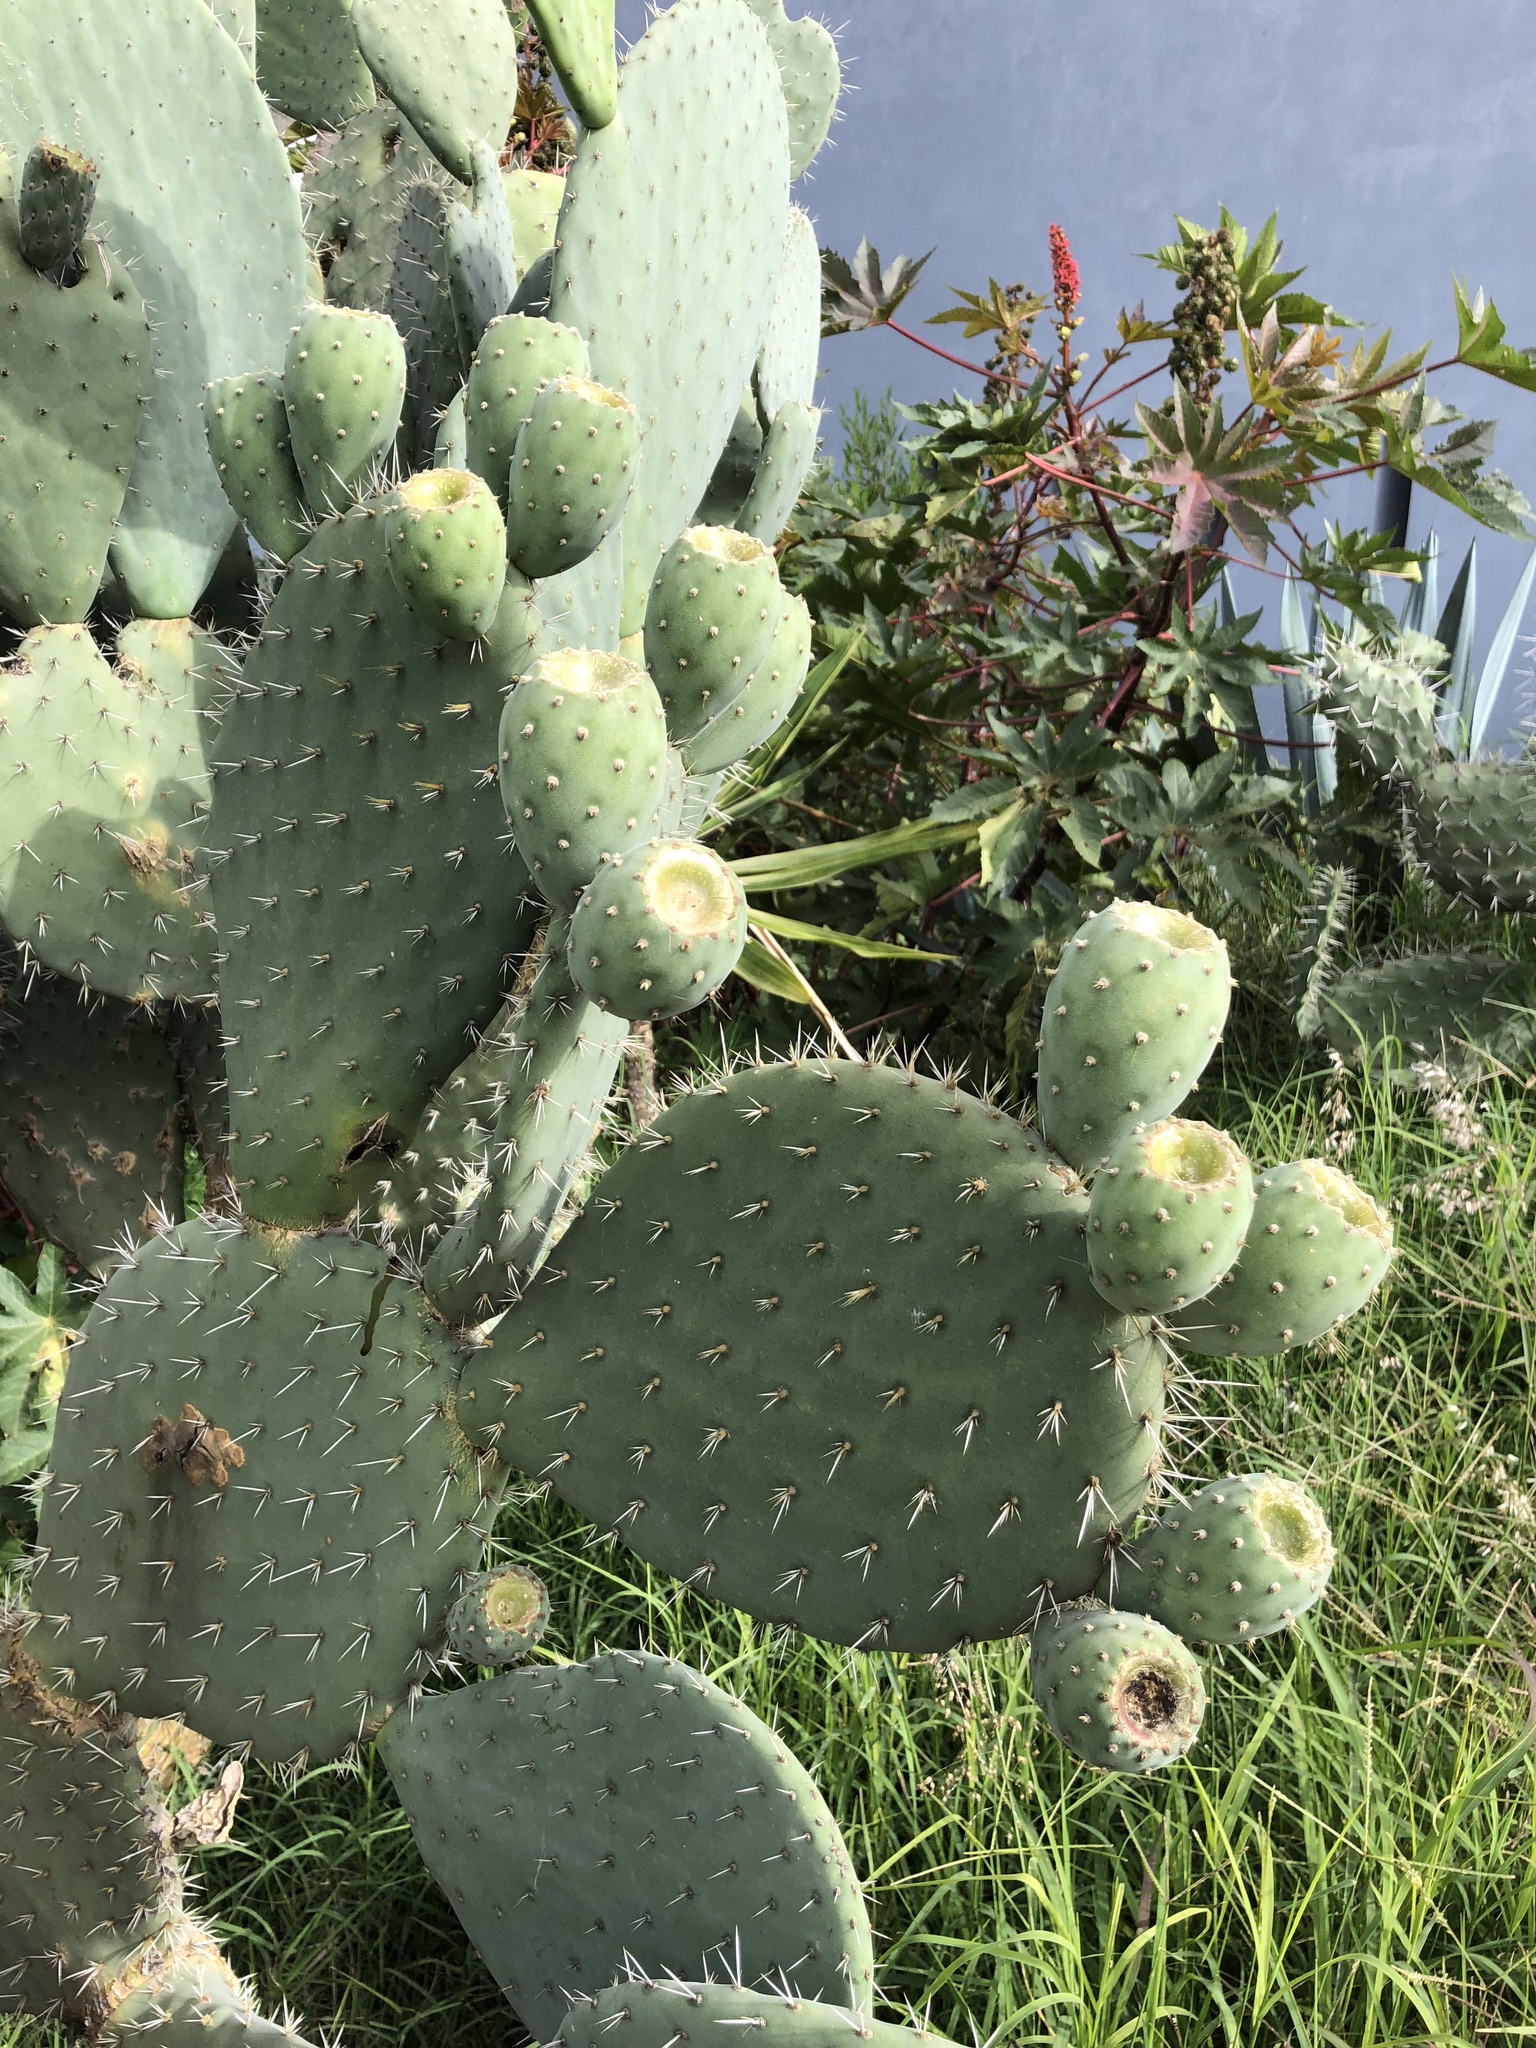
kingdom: Plantae
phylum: Tracheophyta
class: Magnoliopsida
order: Caryophyllales
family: Cactaceae
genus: Opuntia
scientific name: Opuntia lasiacantha
